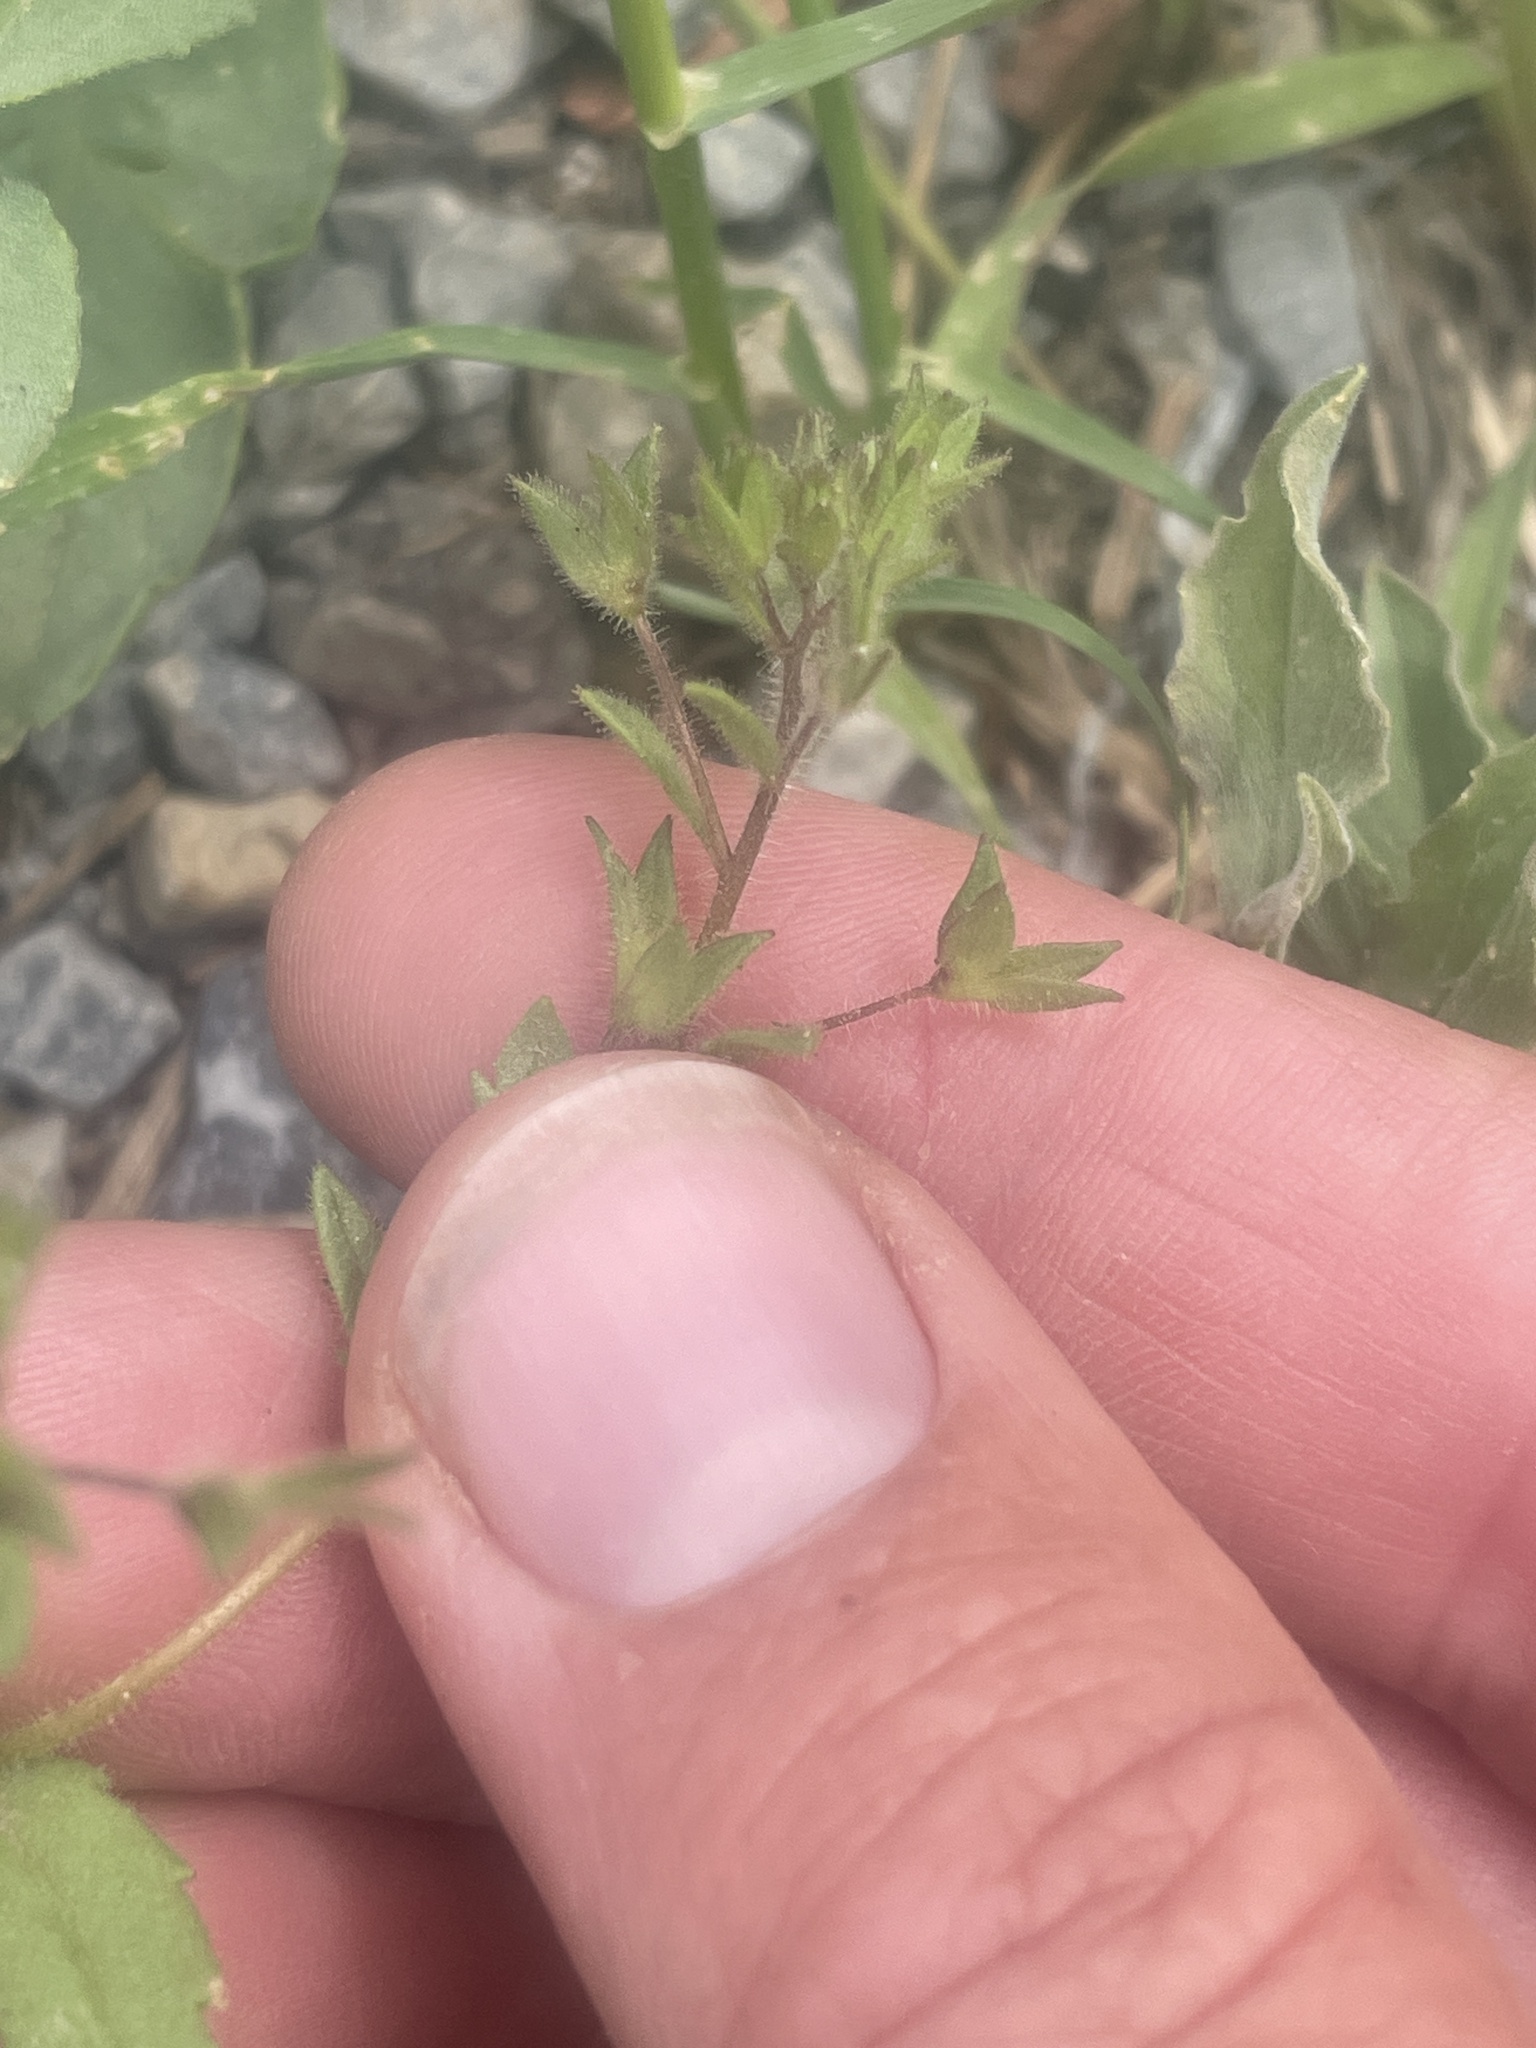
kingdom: Plantae
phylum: Tracheophyta
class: Magnoliopsida
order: Lamiales
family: Plantaginaceae
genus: Veronica
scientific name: Veronica biloba
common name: Twolobe speedwell
